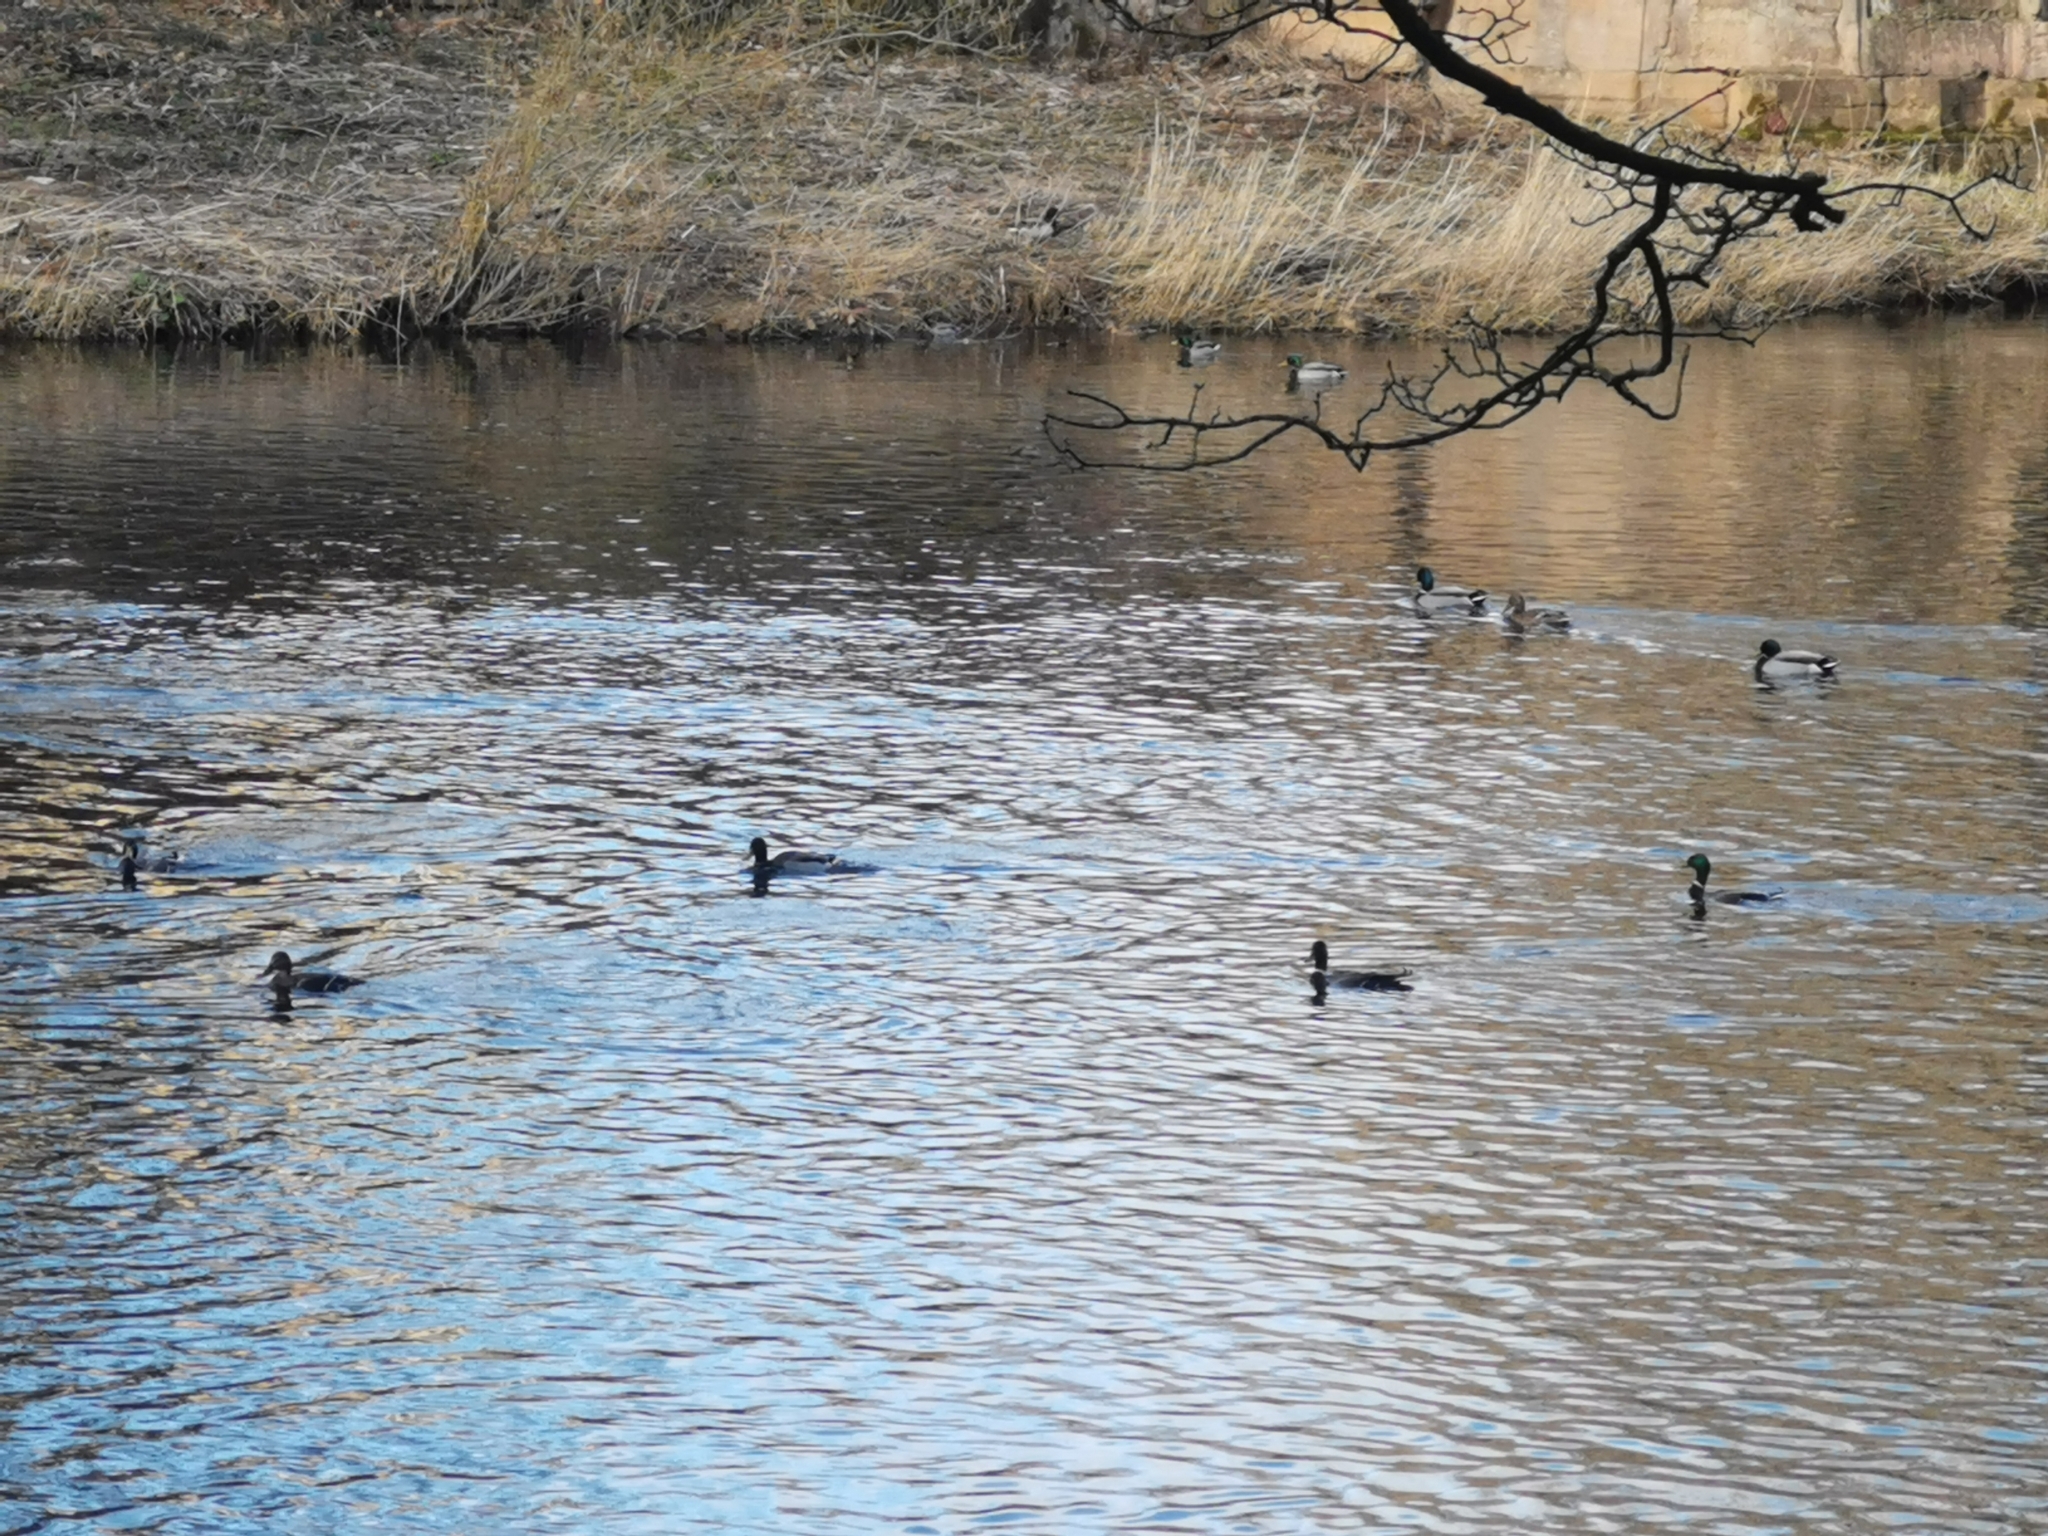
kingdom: Animalia
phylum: Chordata
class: Aves
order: Anseriformes
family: Anatidae
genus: Anas
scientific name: Anas platyrhynchos
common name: Mallard
